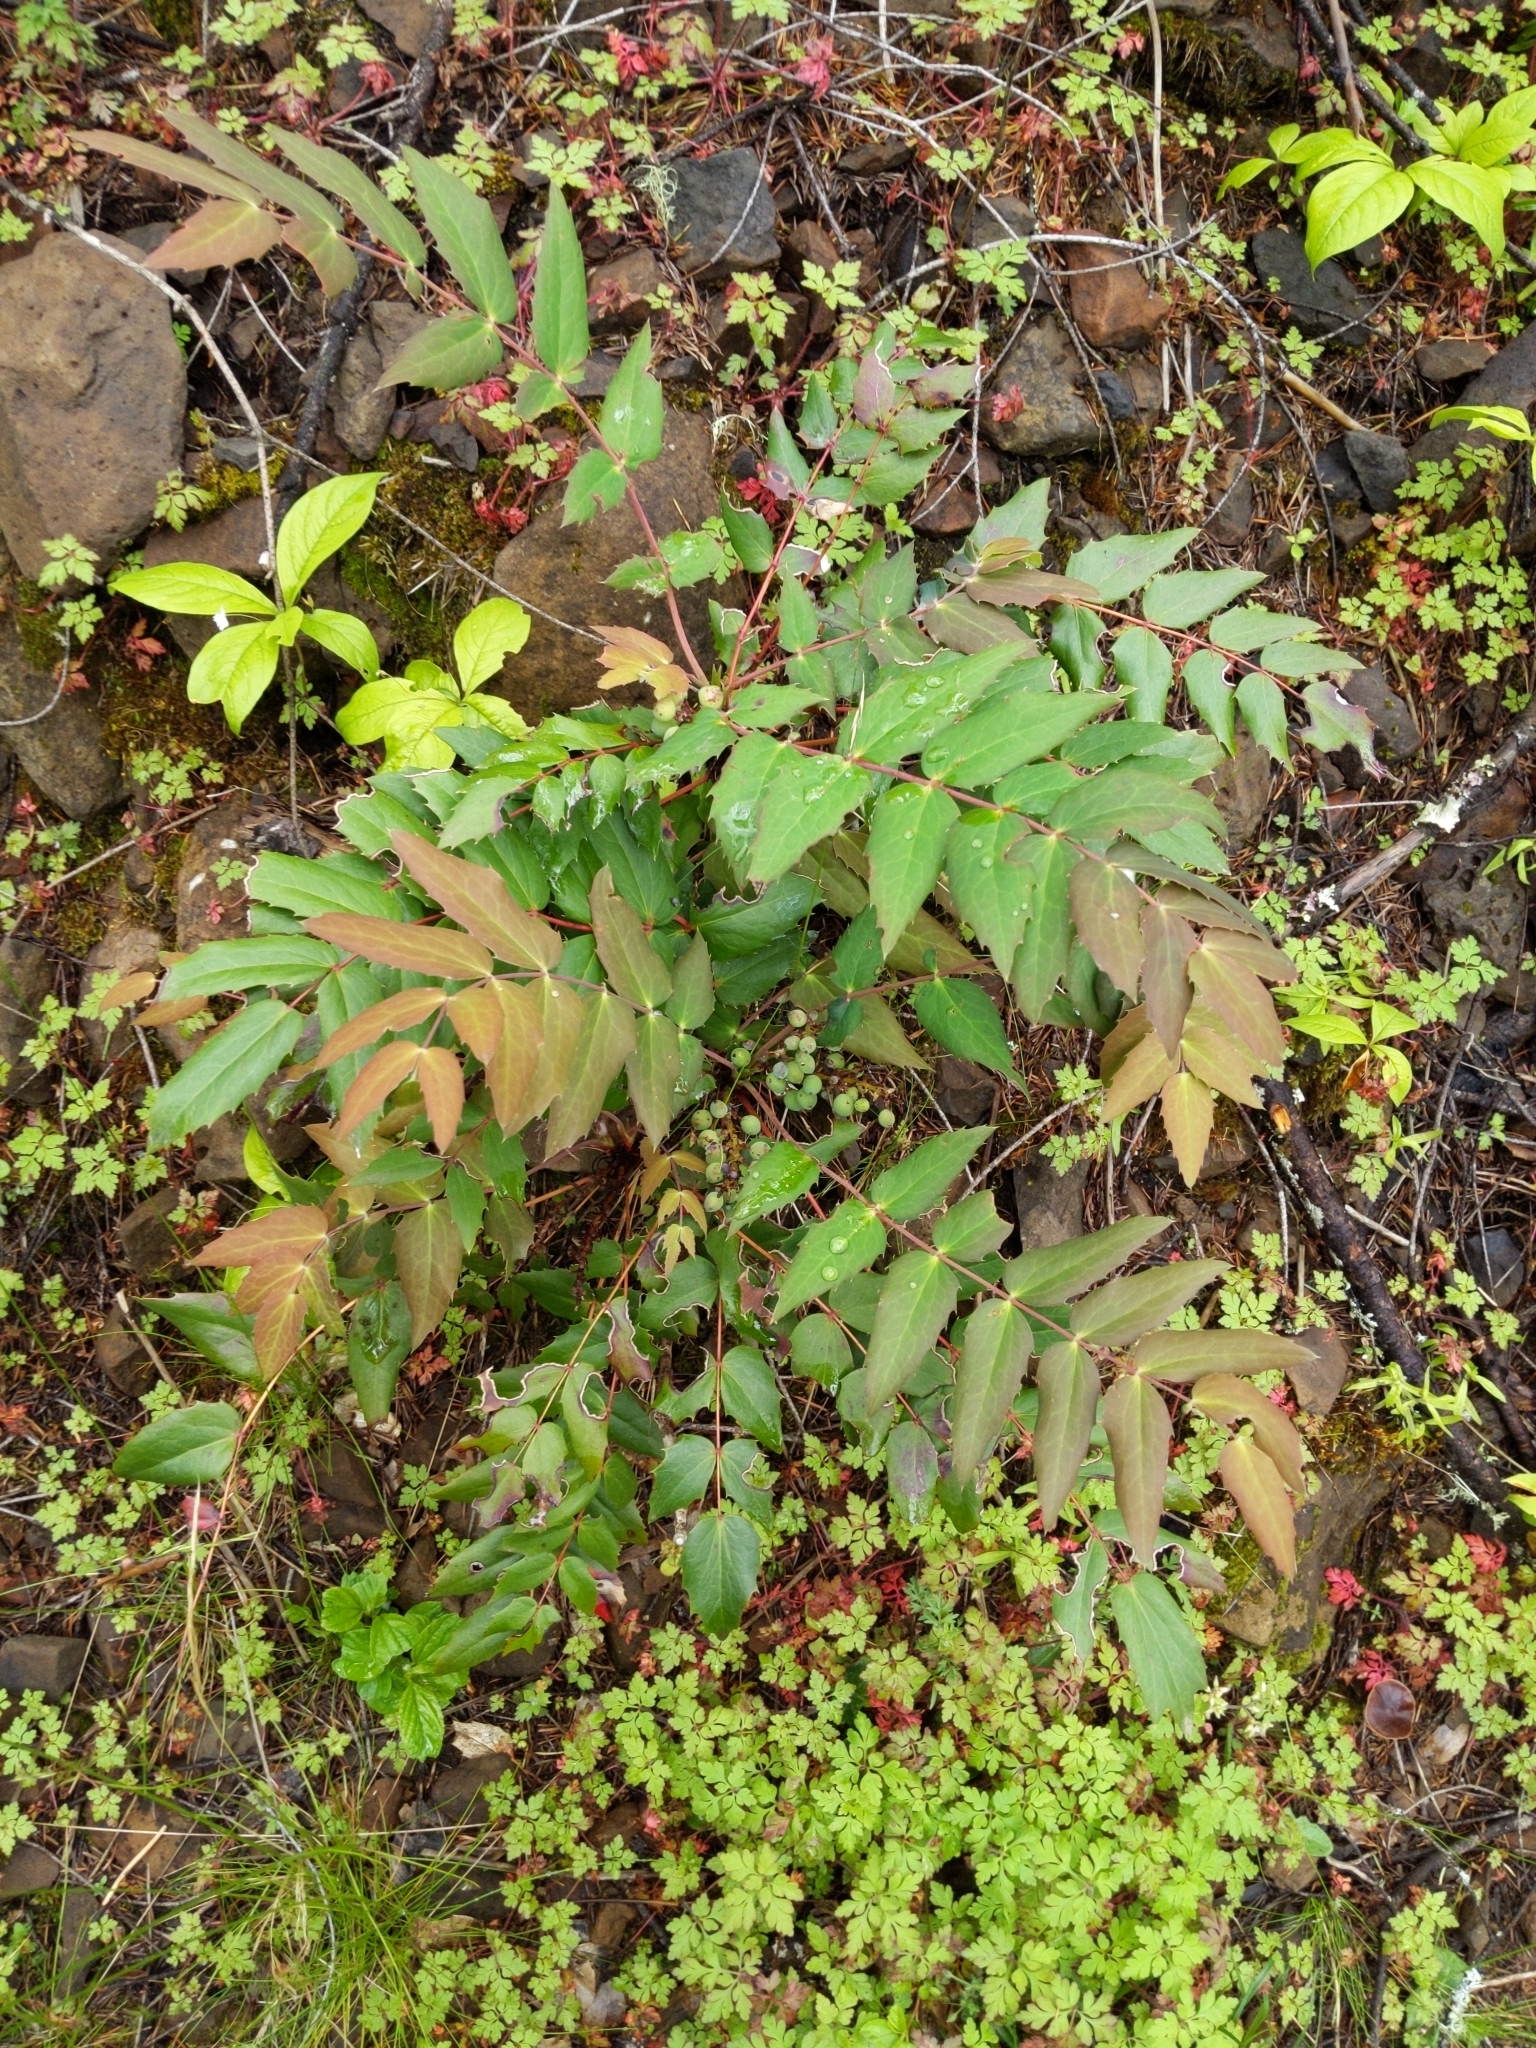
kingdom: Plantae
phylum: Tracheophyta
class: Magnoliopsida
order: Ranunculales
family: Berberidaceae
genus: Mahonia
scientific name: Mahonia nervosa
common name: Cascade oregon-grape
